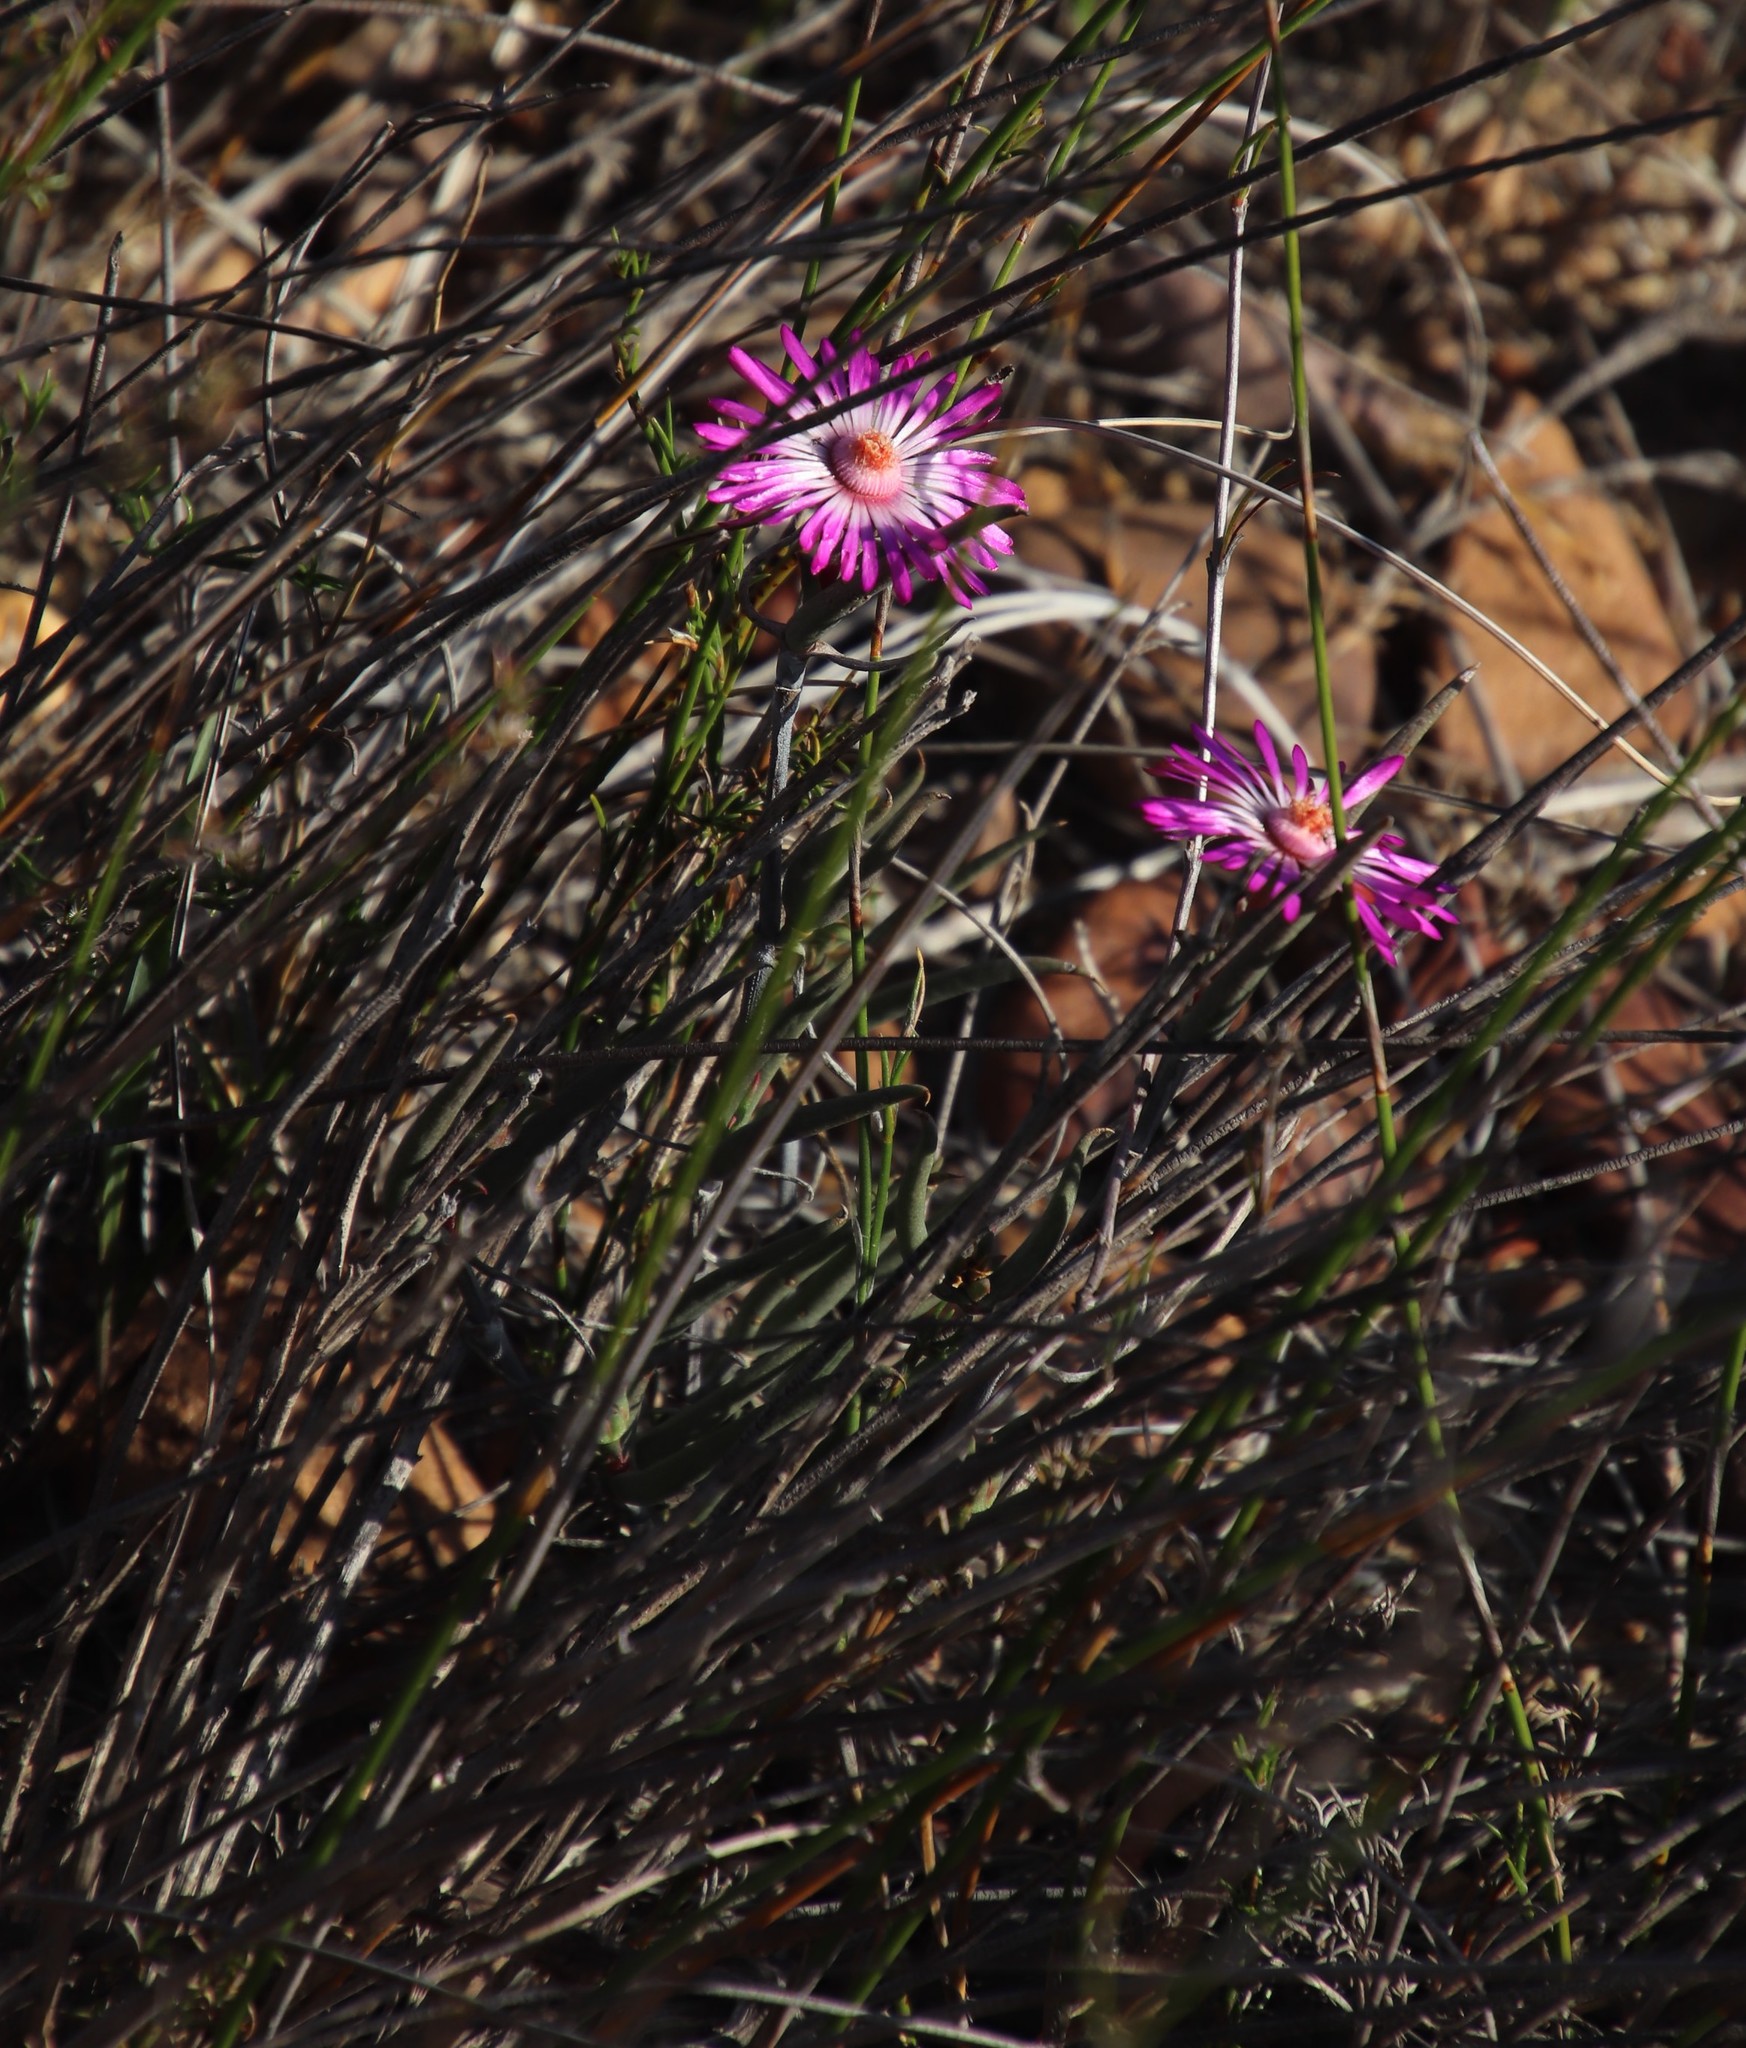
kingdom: Plantae
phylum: Tracheophyta
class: Magnoliopsida
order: Caryophyllales
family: Aizoaceae
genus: Lampranthus
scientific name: Lampranthus spiniformis
